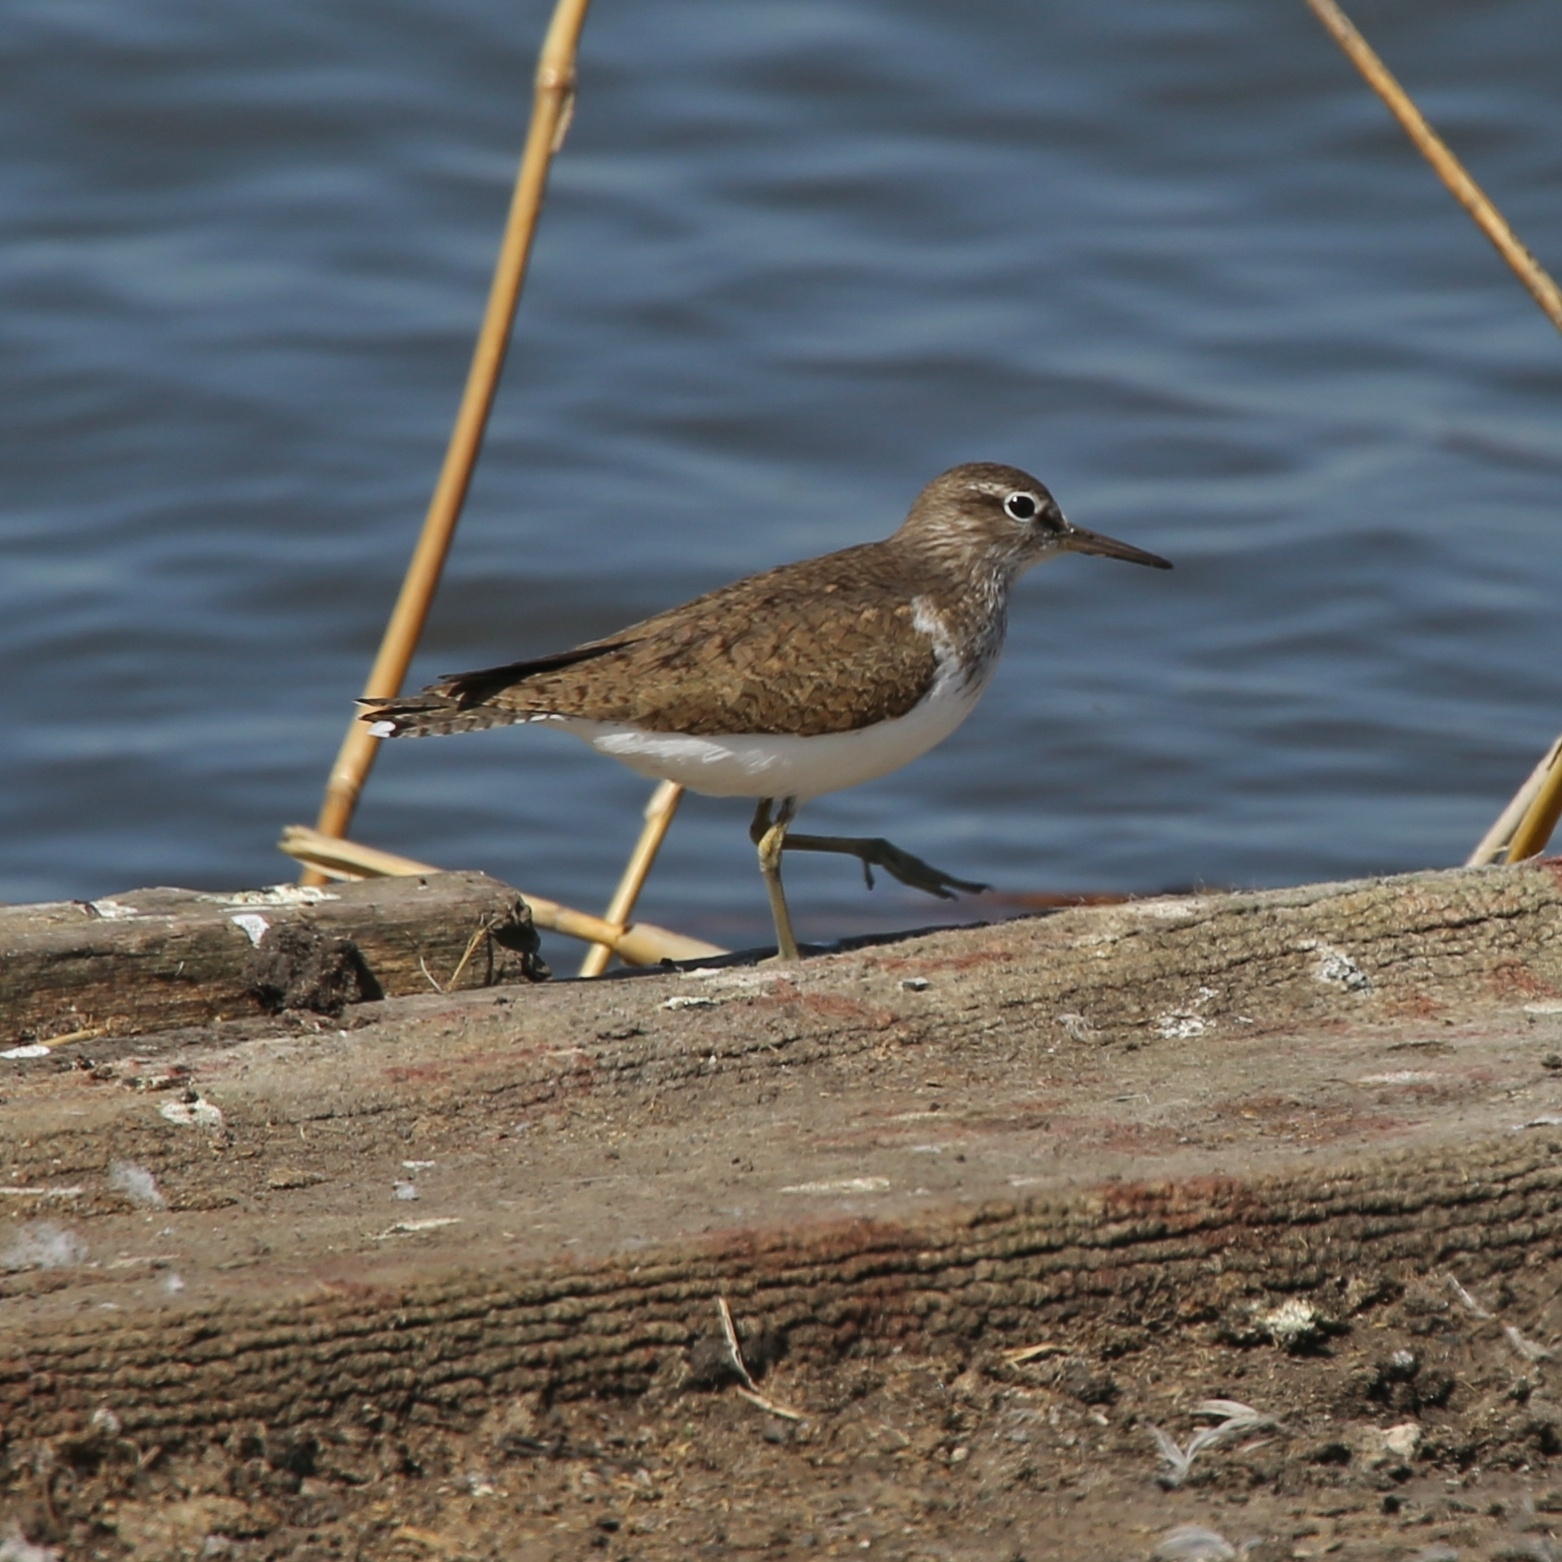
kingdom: Animalia
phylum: Chordata
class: Aves
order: Charadriiformes
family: Scolopacidae
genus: Actitis
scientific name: Actitis hypoleucos
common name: Common sandpiper
